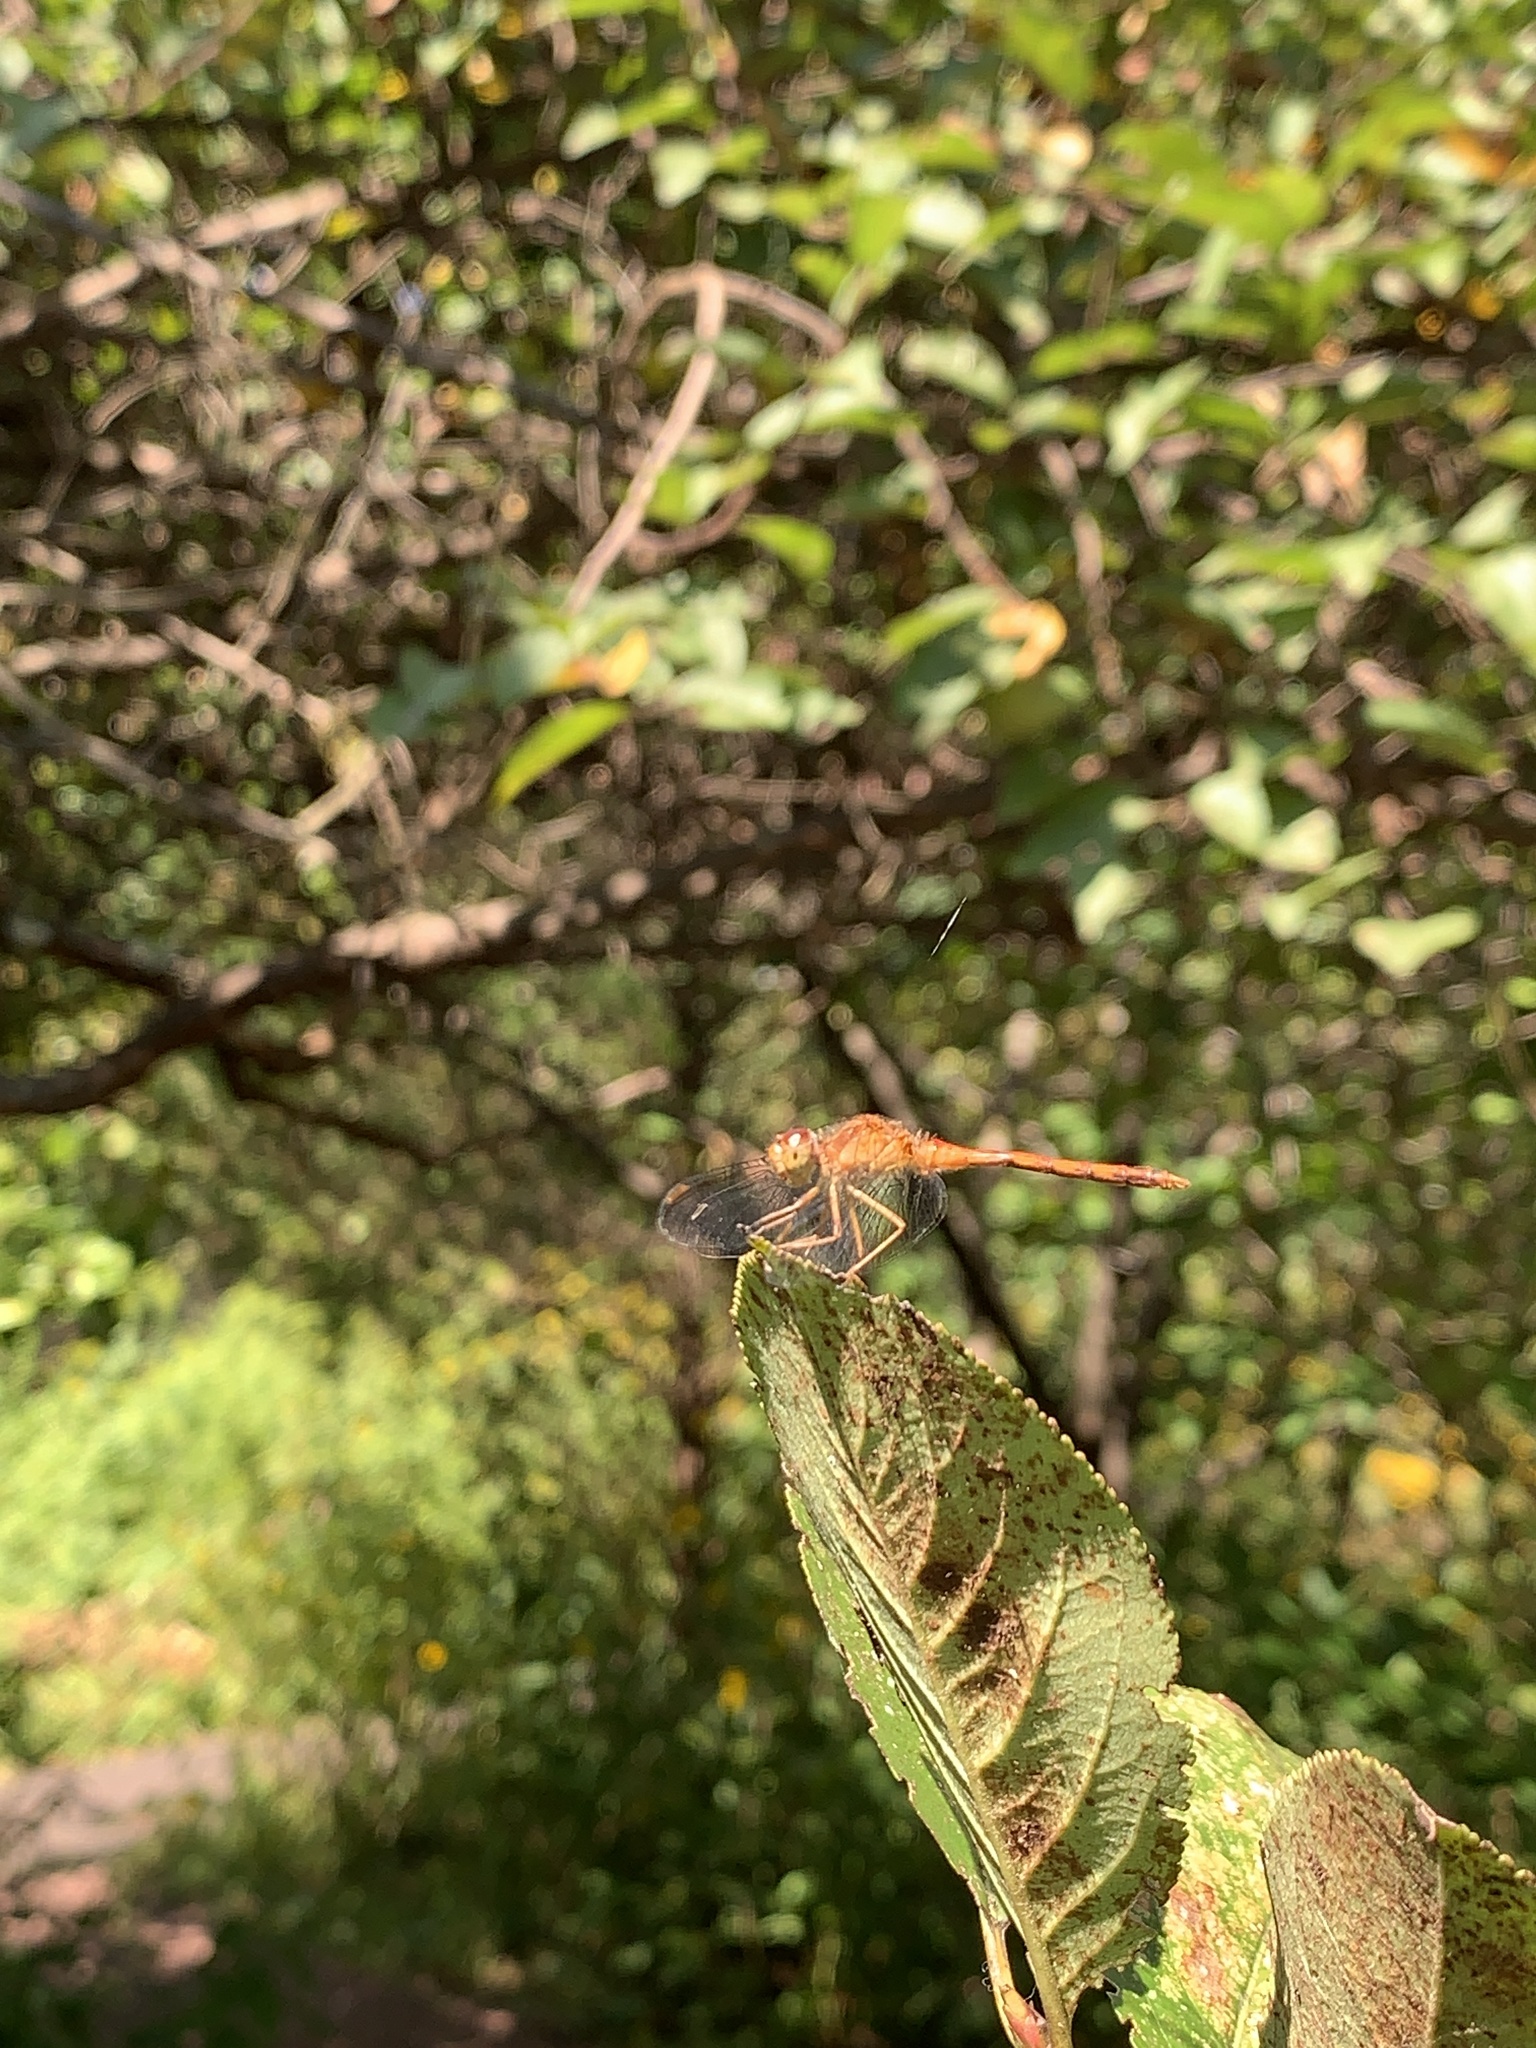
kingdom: Animalia
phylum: Arthropoda
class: Insecta
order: Odonata
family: Libellulidae
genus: Sympetrum
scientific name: Sympetrum vicinum
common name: Autumn meadowhawk
